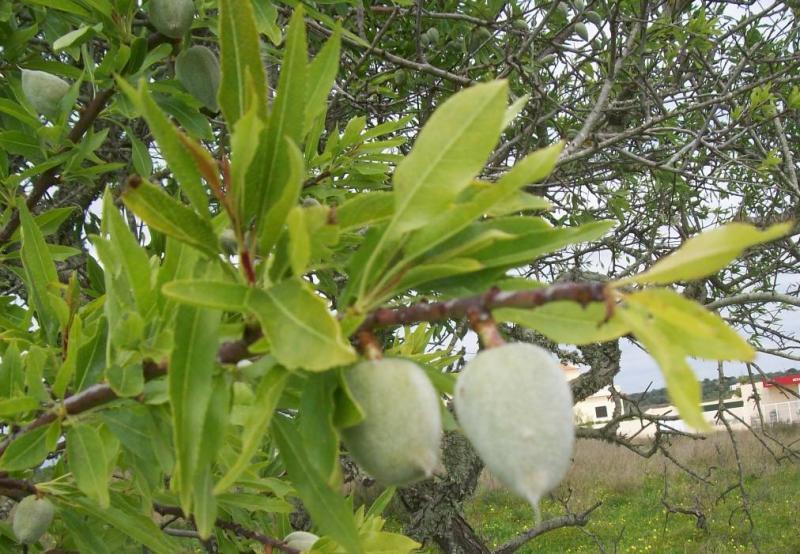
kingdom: Plantae
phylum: Tracheophyta
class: Magnoliopsida
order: Rosales
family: Rosaceae
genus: Prunus
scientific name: Prunus amygdalus
